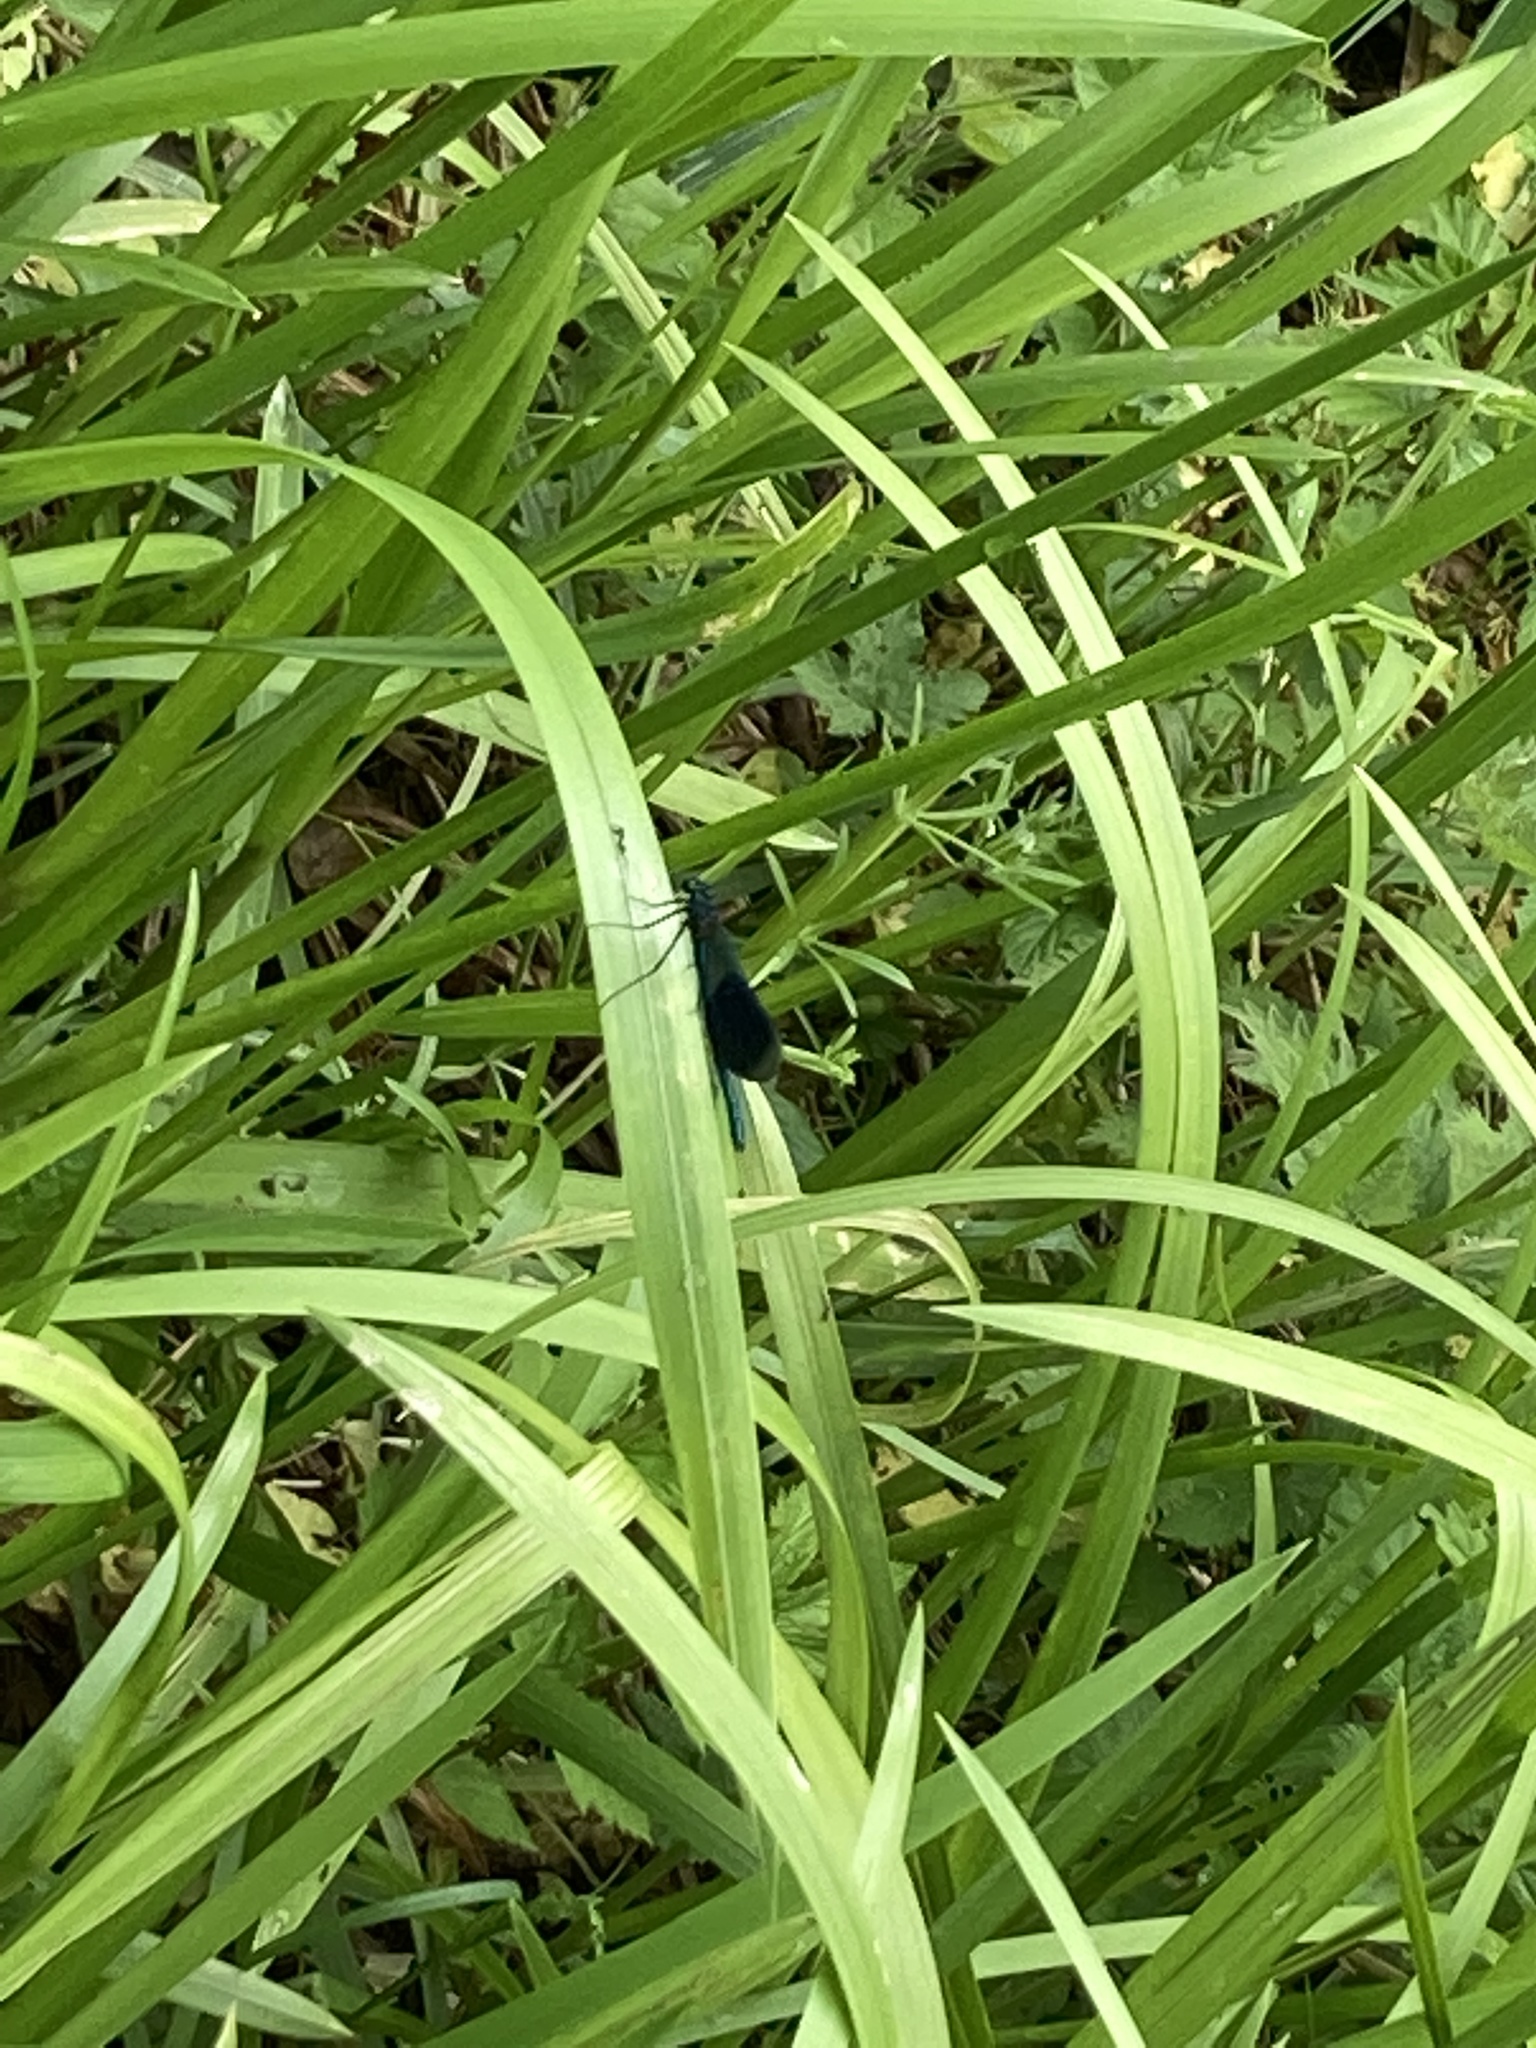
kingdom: Animalia
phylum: Arthropoda
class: Insecta
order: Odonata
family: Calopterygidae
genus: Calopteryx
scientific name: Calopteryx splendens
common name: Banded demoiselle
